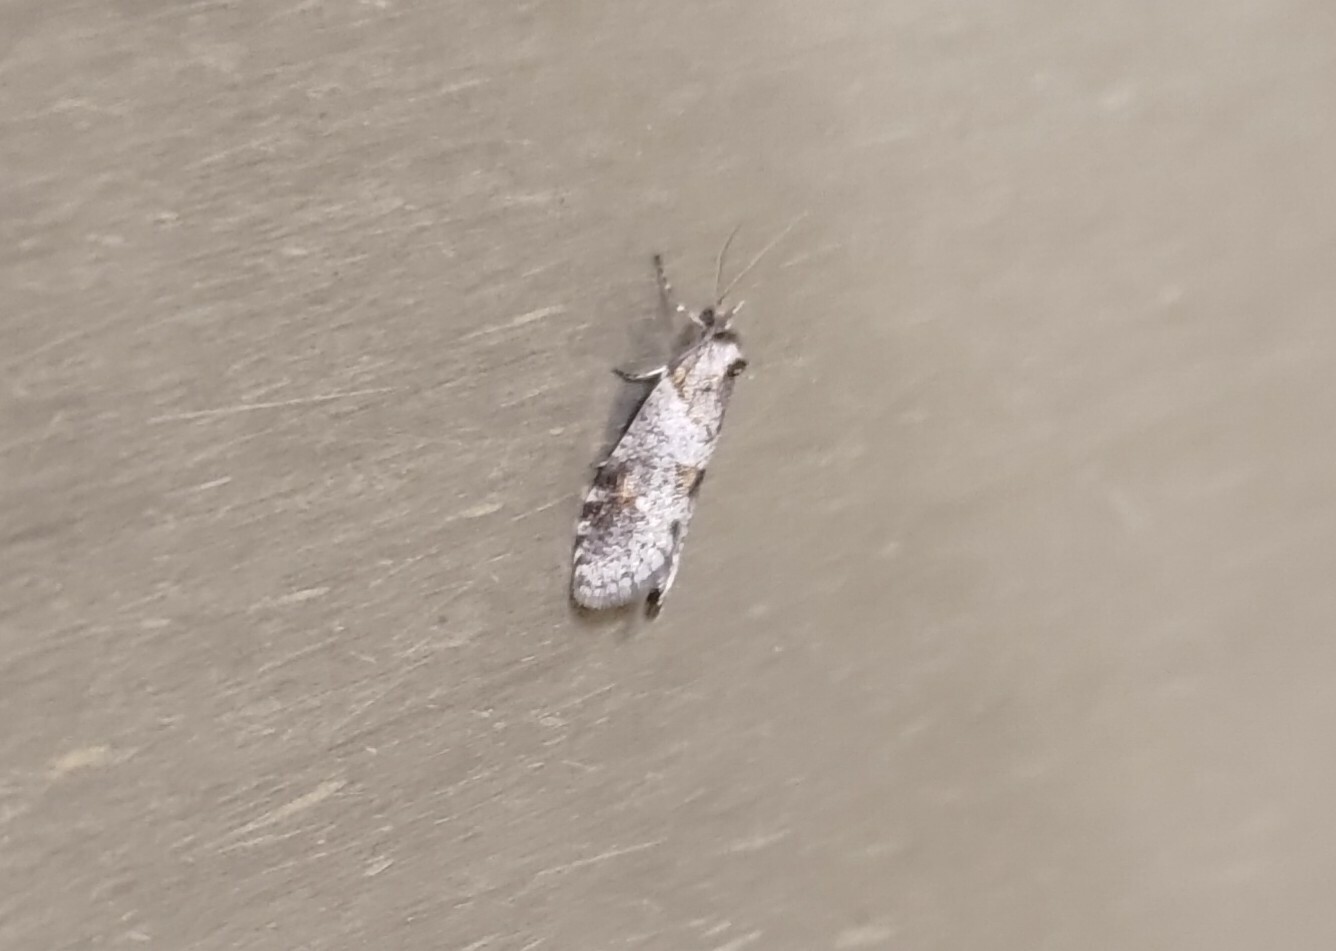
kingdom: Animalia
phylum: Arthropoda
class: Insecta
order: Lepidoptera
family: Psychidae
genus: Lepidoscia
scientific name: Lepidoscia heliochares
